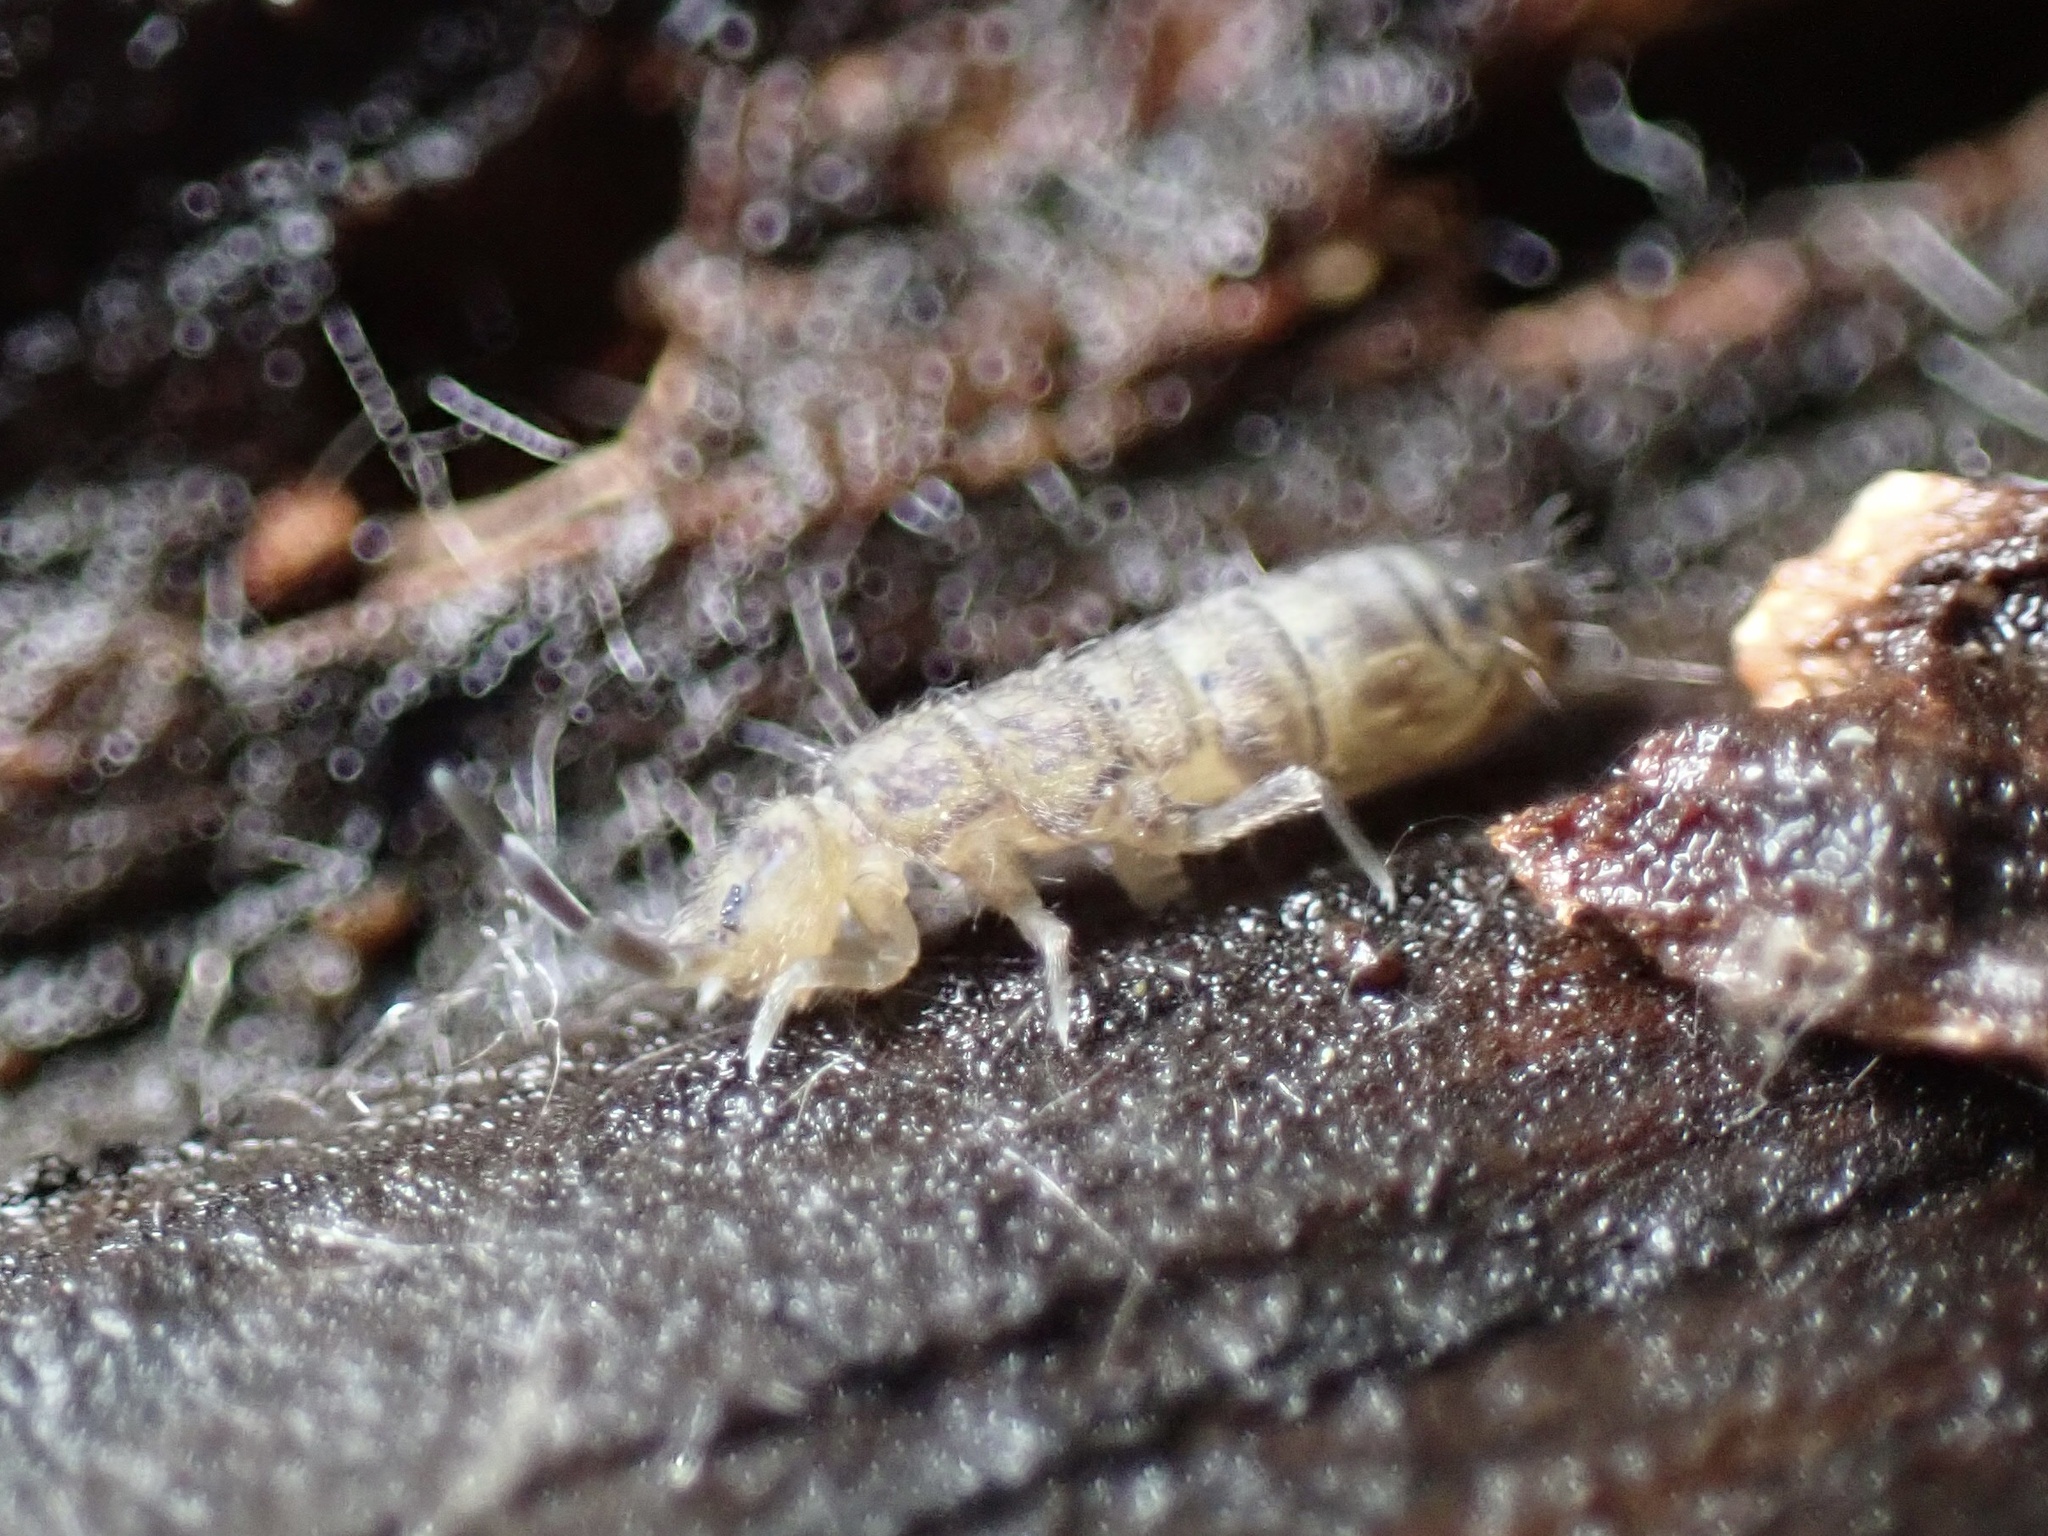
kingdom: Animalia
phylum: Arthropoda
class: Collembola
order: Entomobryomorpha
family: Isotomidae
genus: Isotoma
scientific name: Isotoma delta
